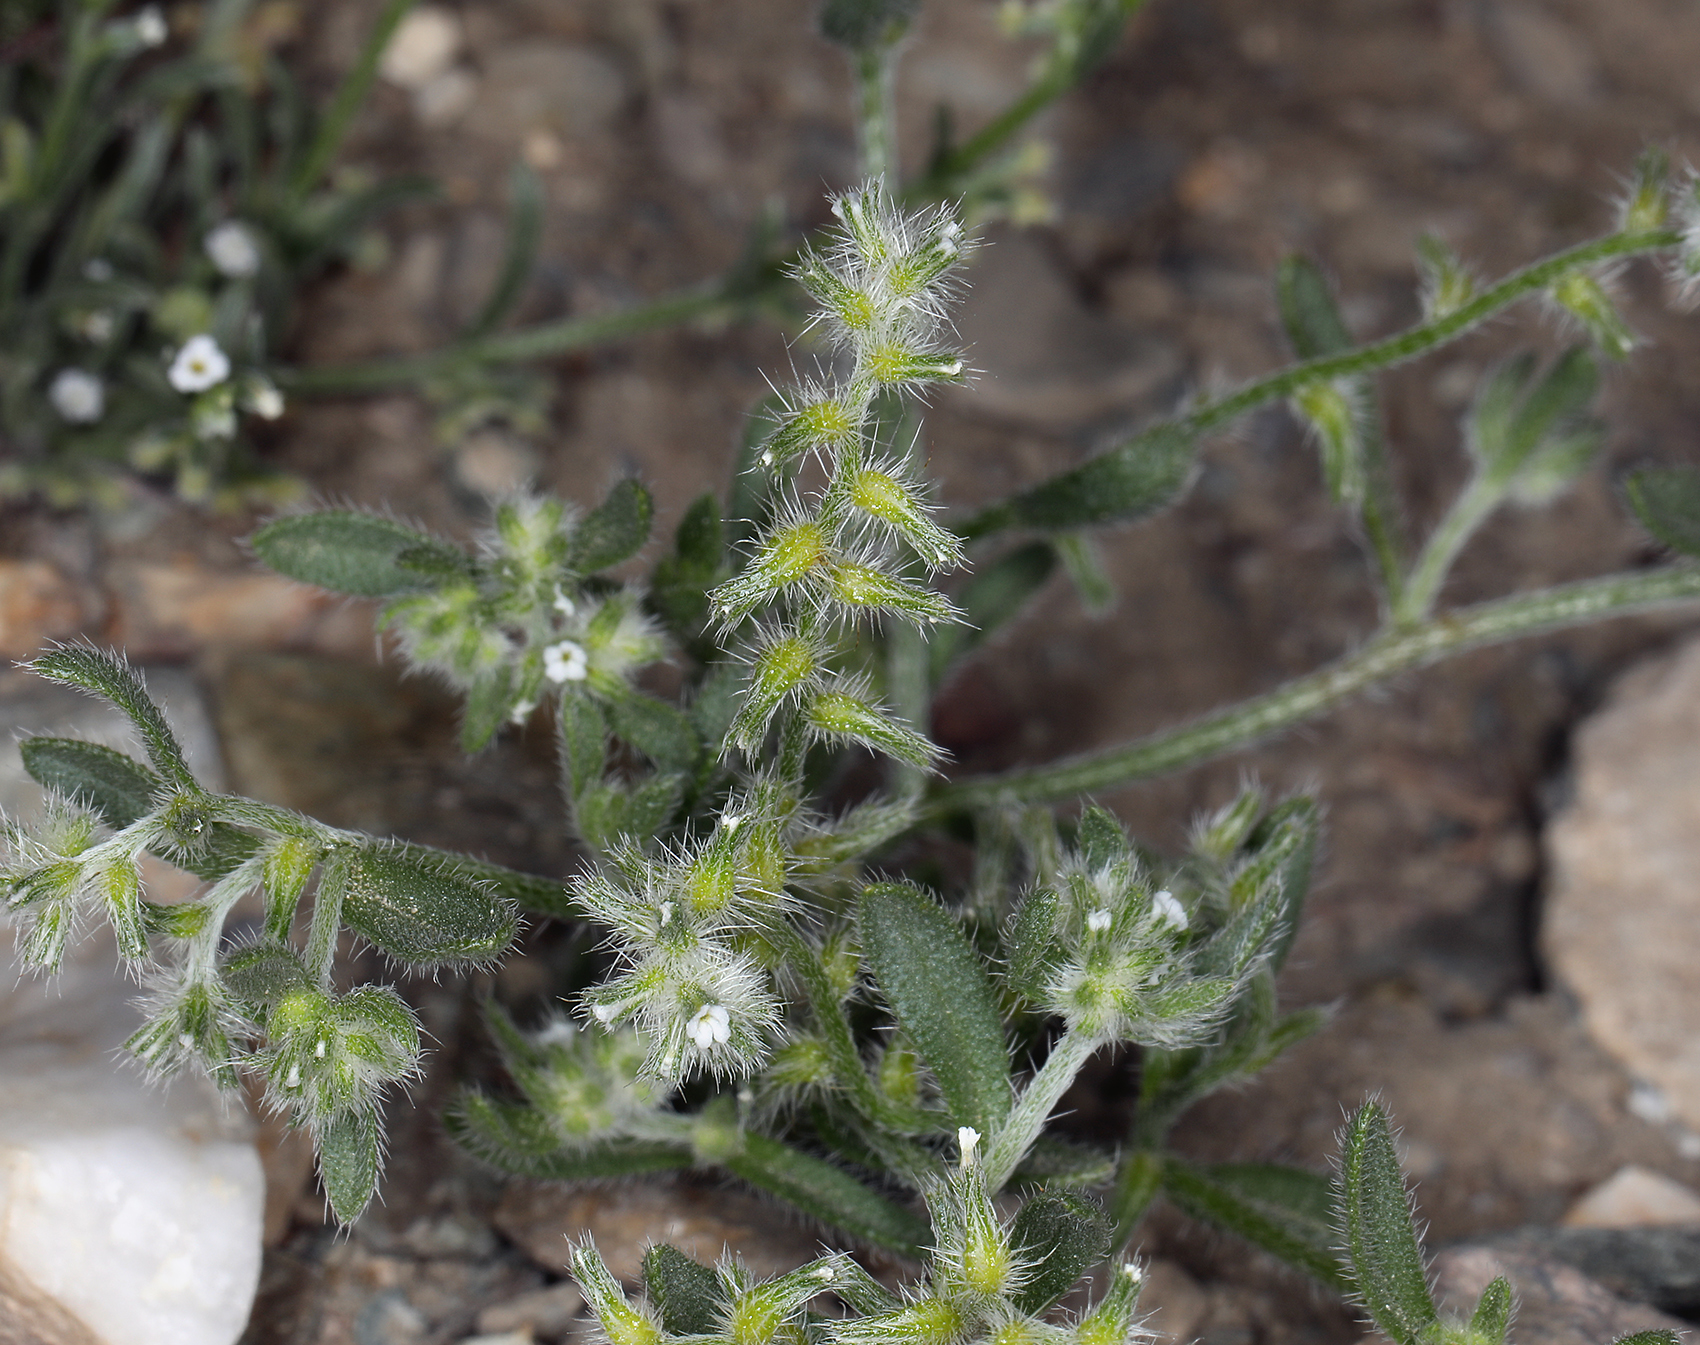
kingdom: Plantae
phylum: Tracheophyta
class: Magnoliopsida
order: Boraginales
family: Boraginaceae
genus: Cryptantha
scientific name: Cryptantha recurvata
